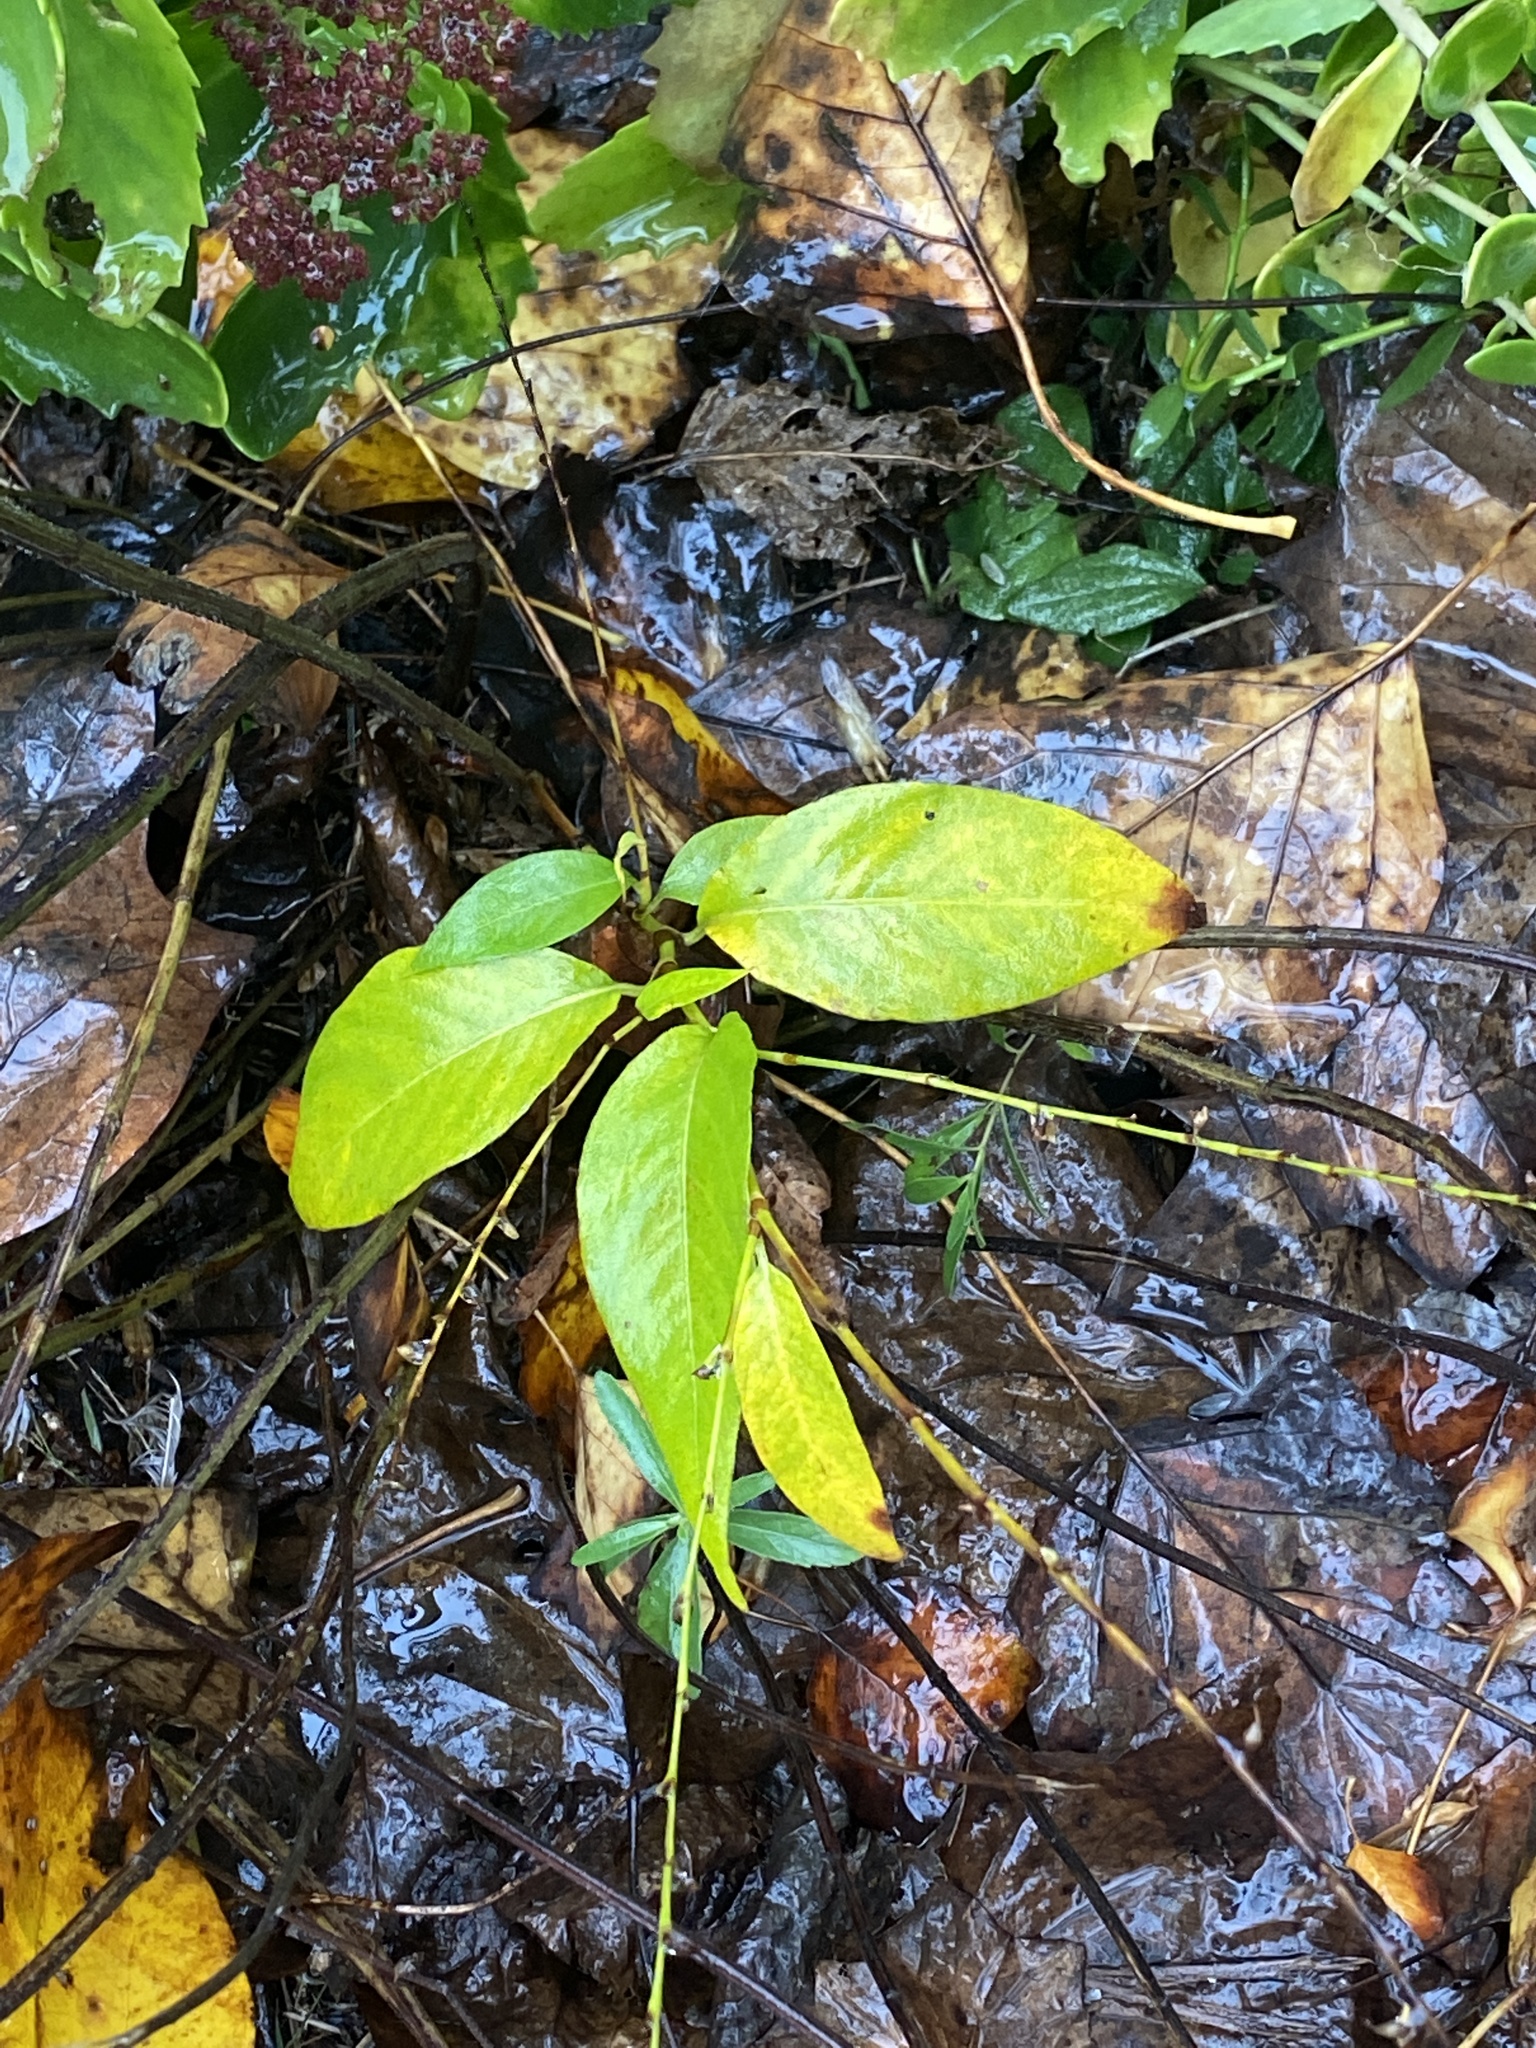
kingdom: Plantae
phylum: Tracheophyta
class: Magnoliopsida
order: Caryophyllales
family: Polygonaceae
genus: Persicaria
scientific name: Persicaria virginiana
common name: Jumpseed
